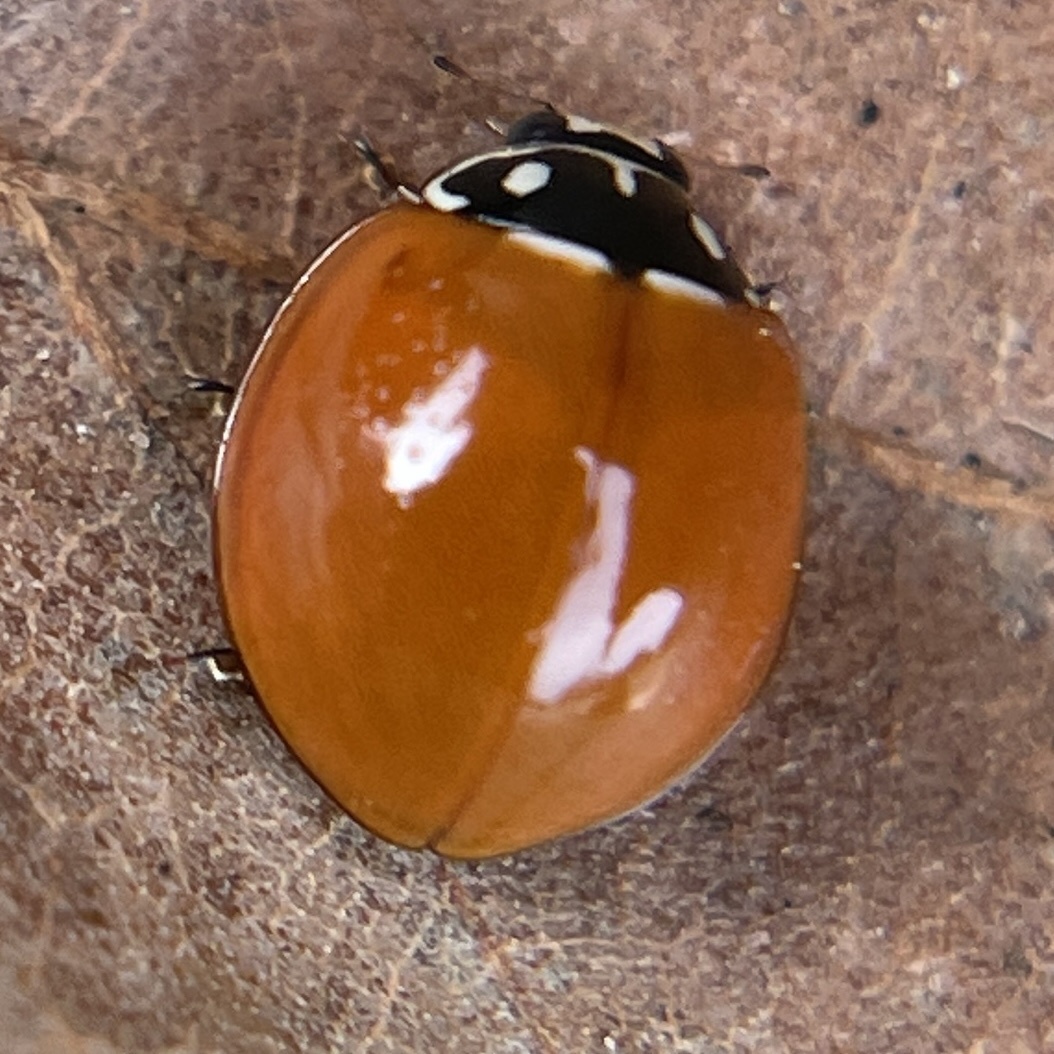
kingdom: Animalia
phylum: Arthropoda
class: Insecta
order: Coleoptera
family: Coccinellidae
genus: Cycloneda
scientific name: Cycloneda sanguinea
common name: Ladybird beetle
